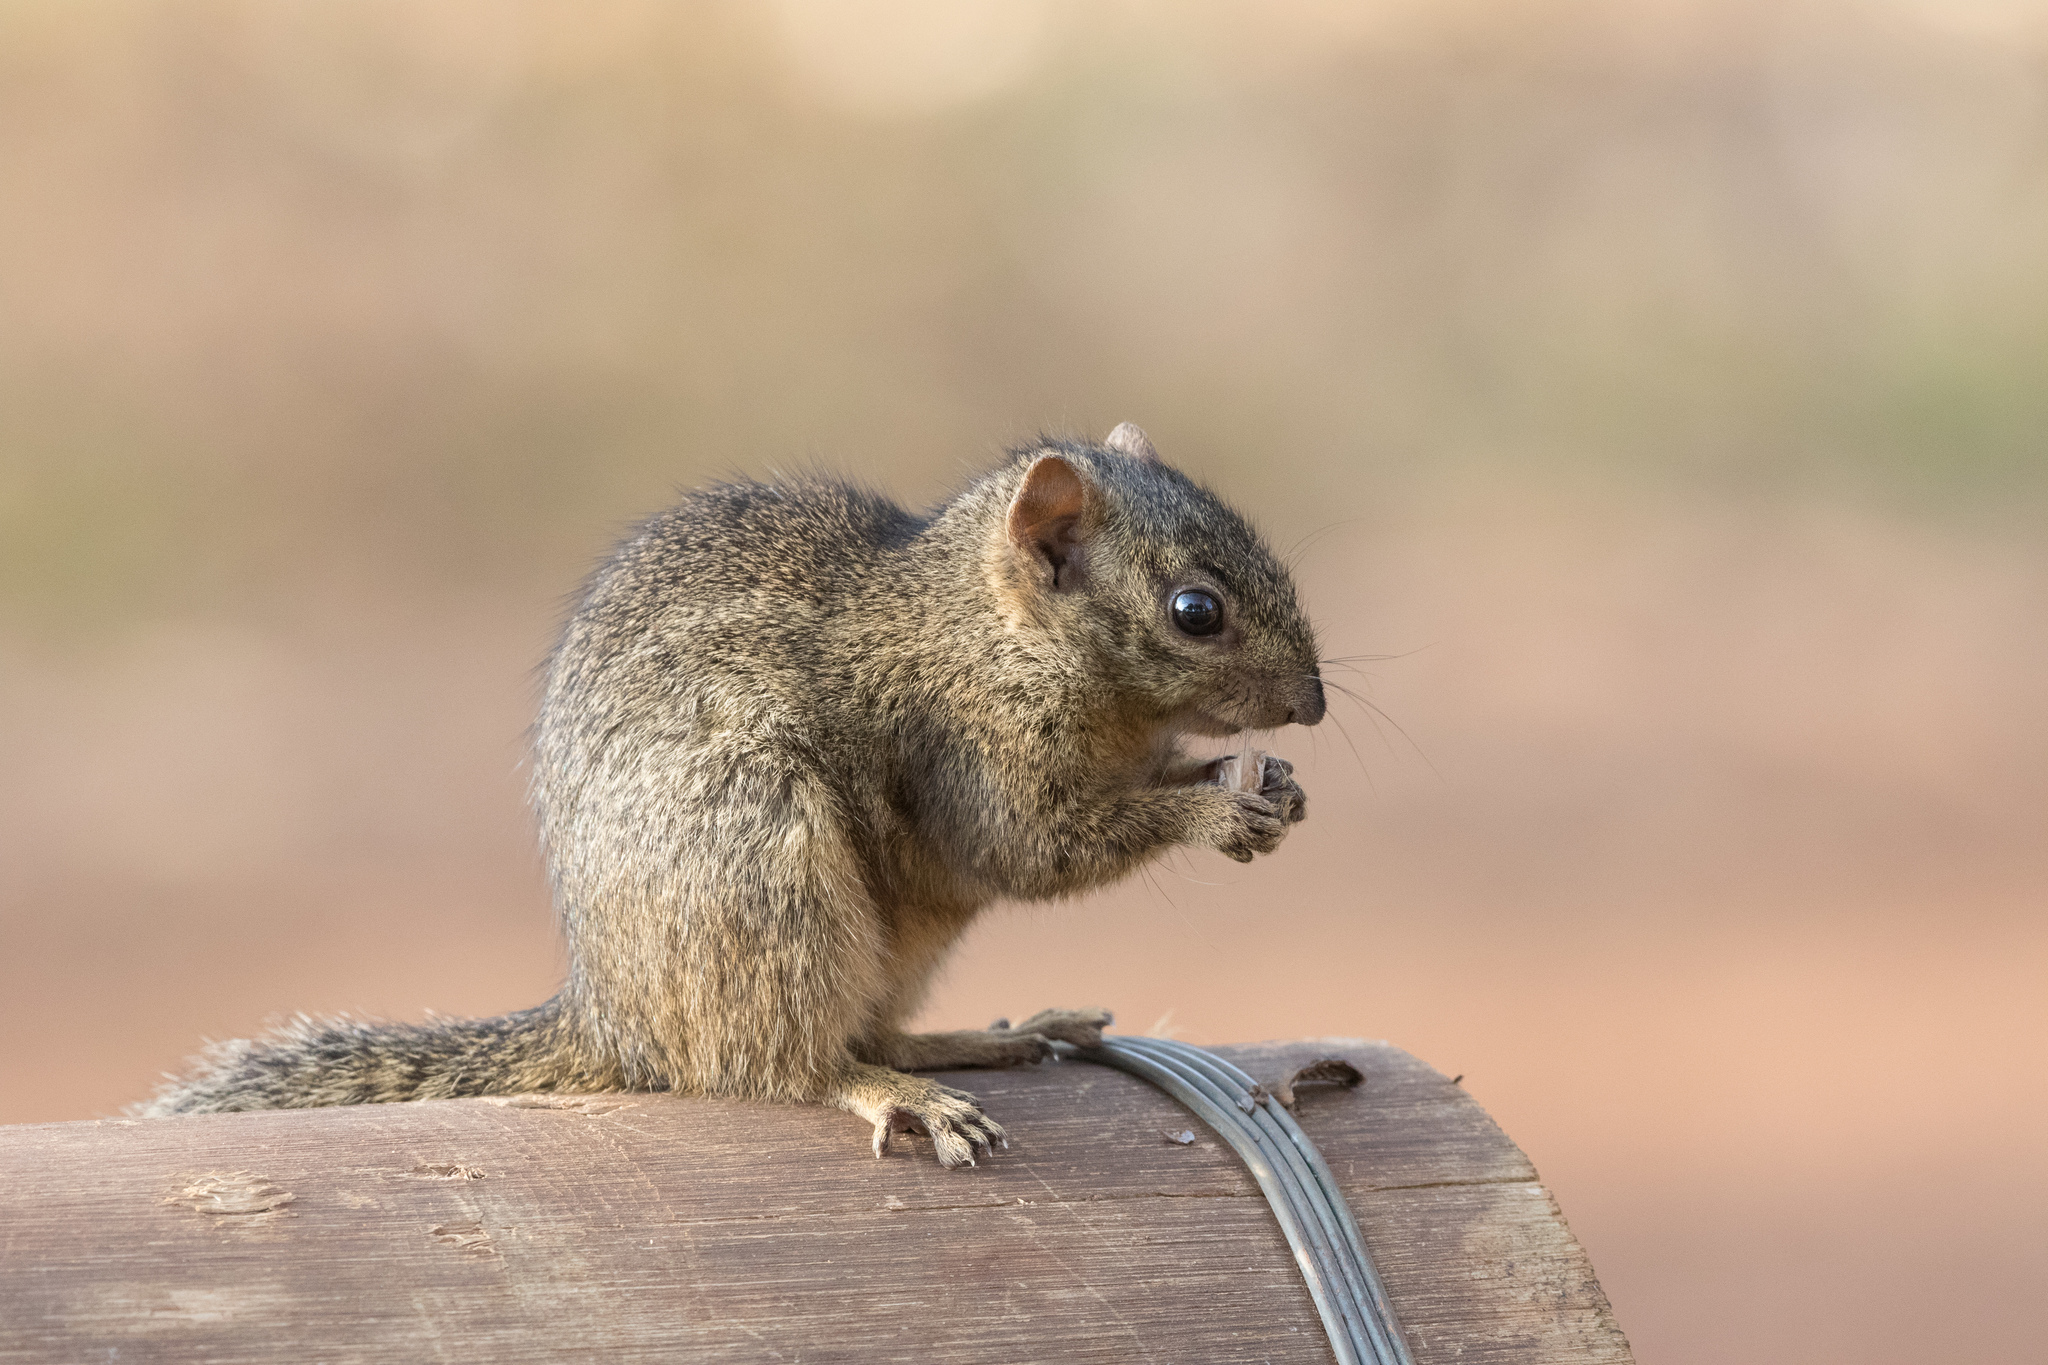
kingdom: Animalia
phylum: Chordata
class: Mammalia
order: Rodentia
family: Sciuridae
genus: Paraxerus
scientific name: Paraxerus ochraceus
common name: Ochre bush squirrel
